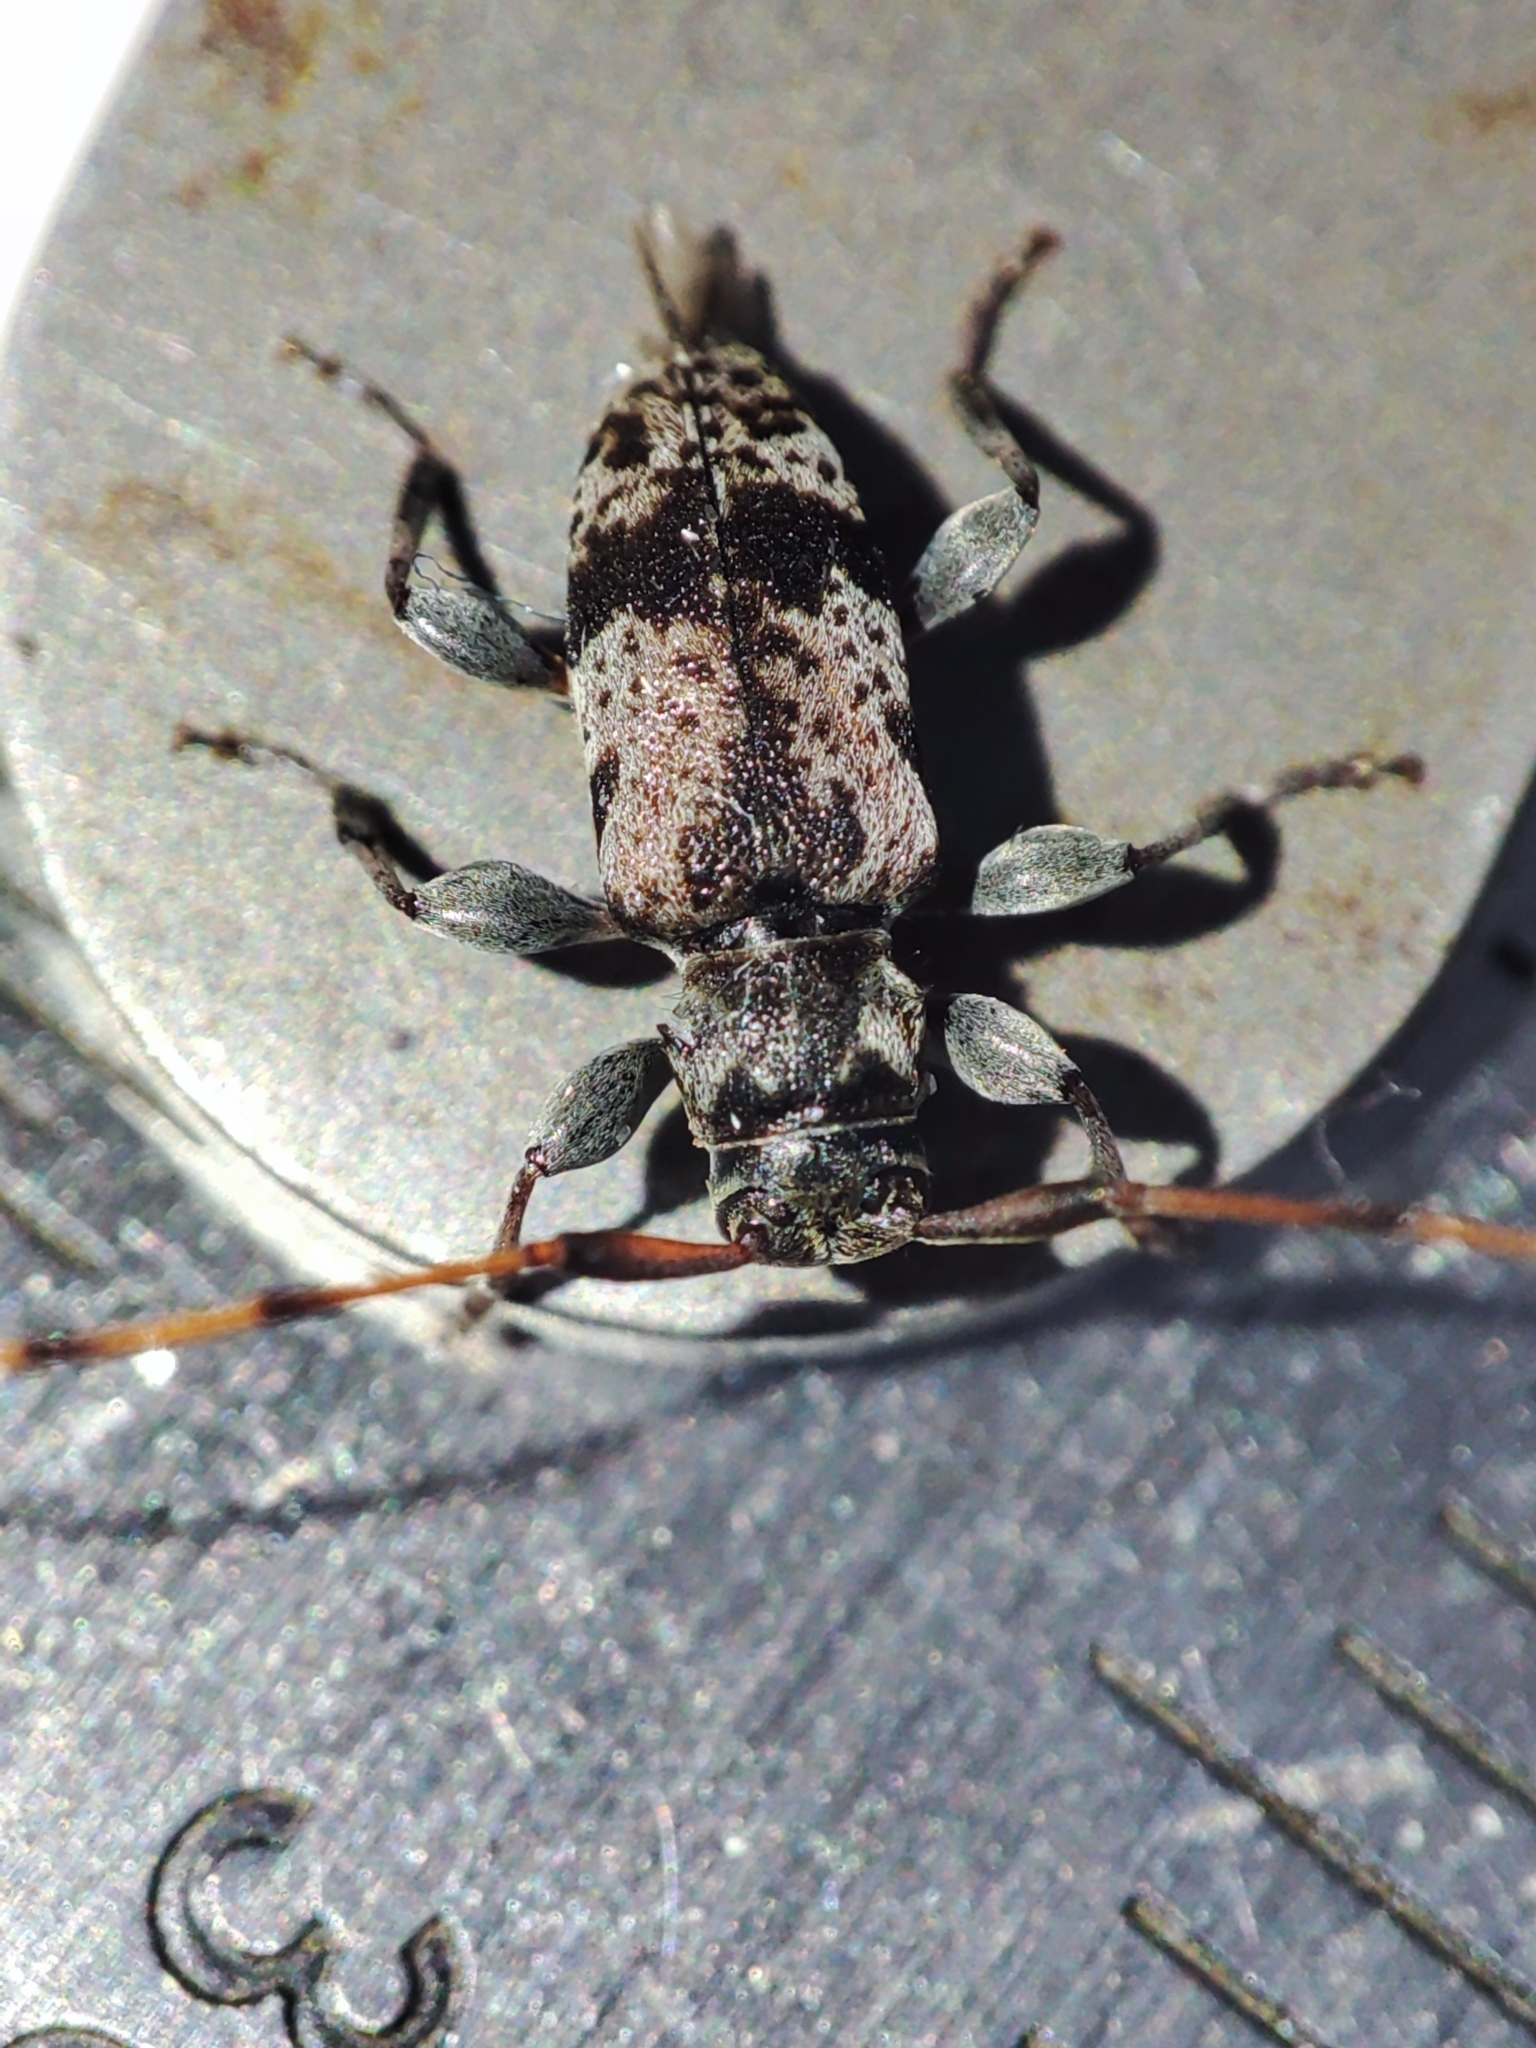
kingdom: Animalia
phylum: Arthropoda
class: Insecta
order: Coleoptera
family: Cerambycidae
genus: Leiopus
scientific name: Leiopus femoratus
